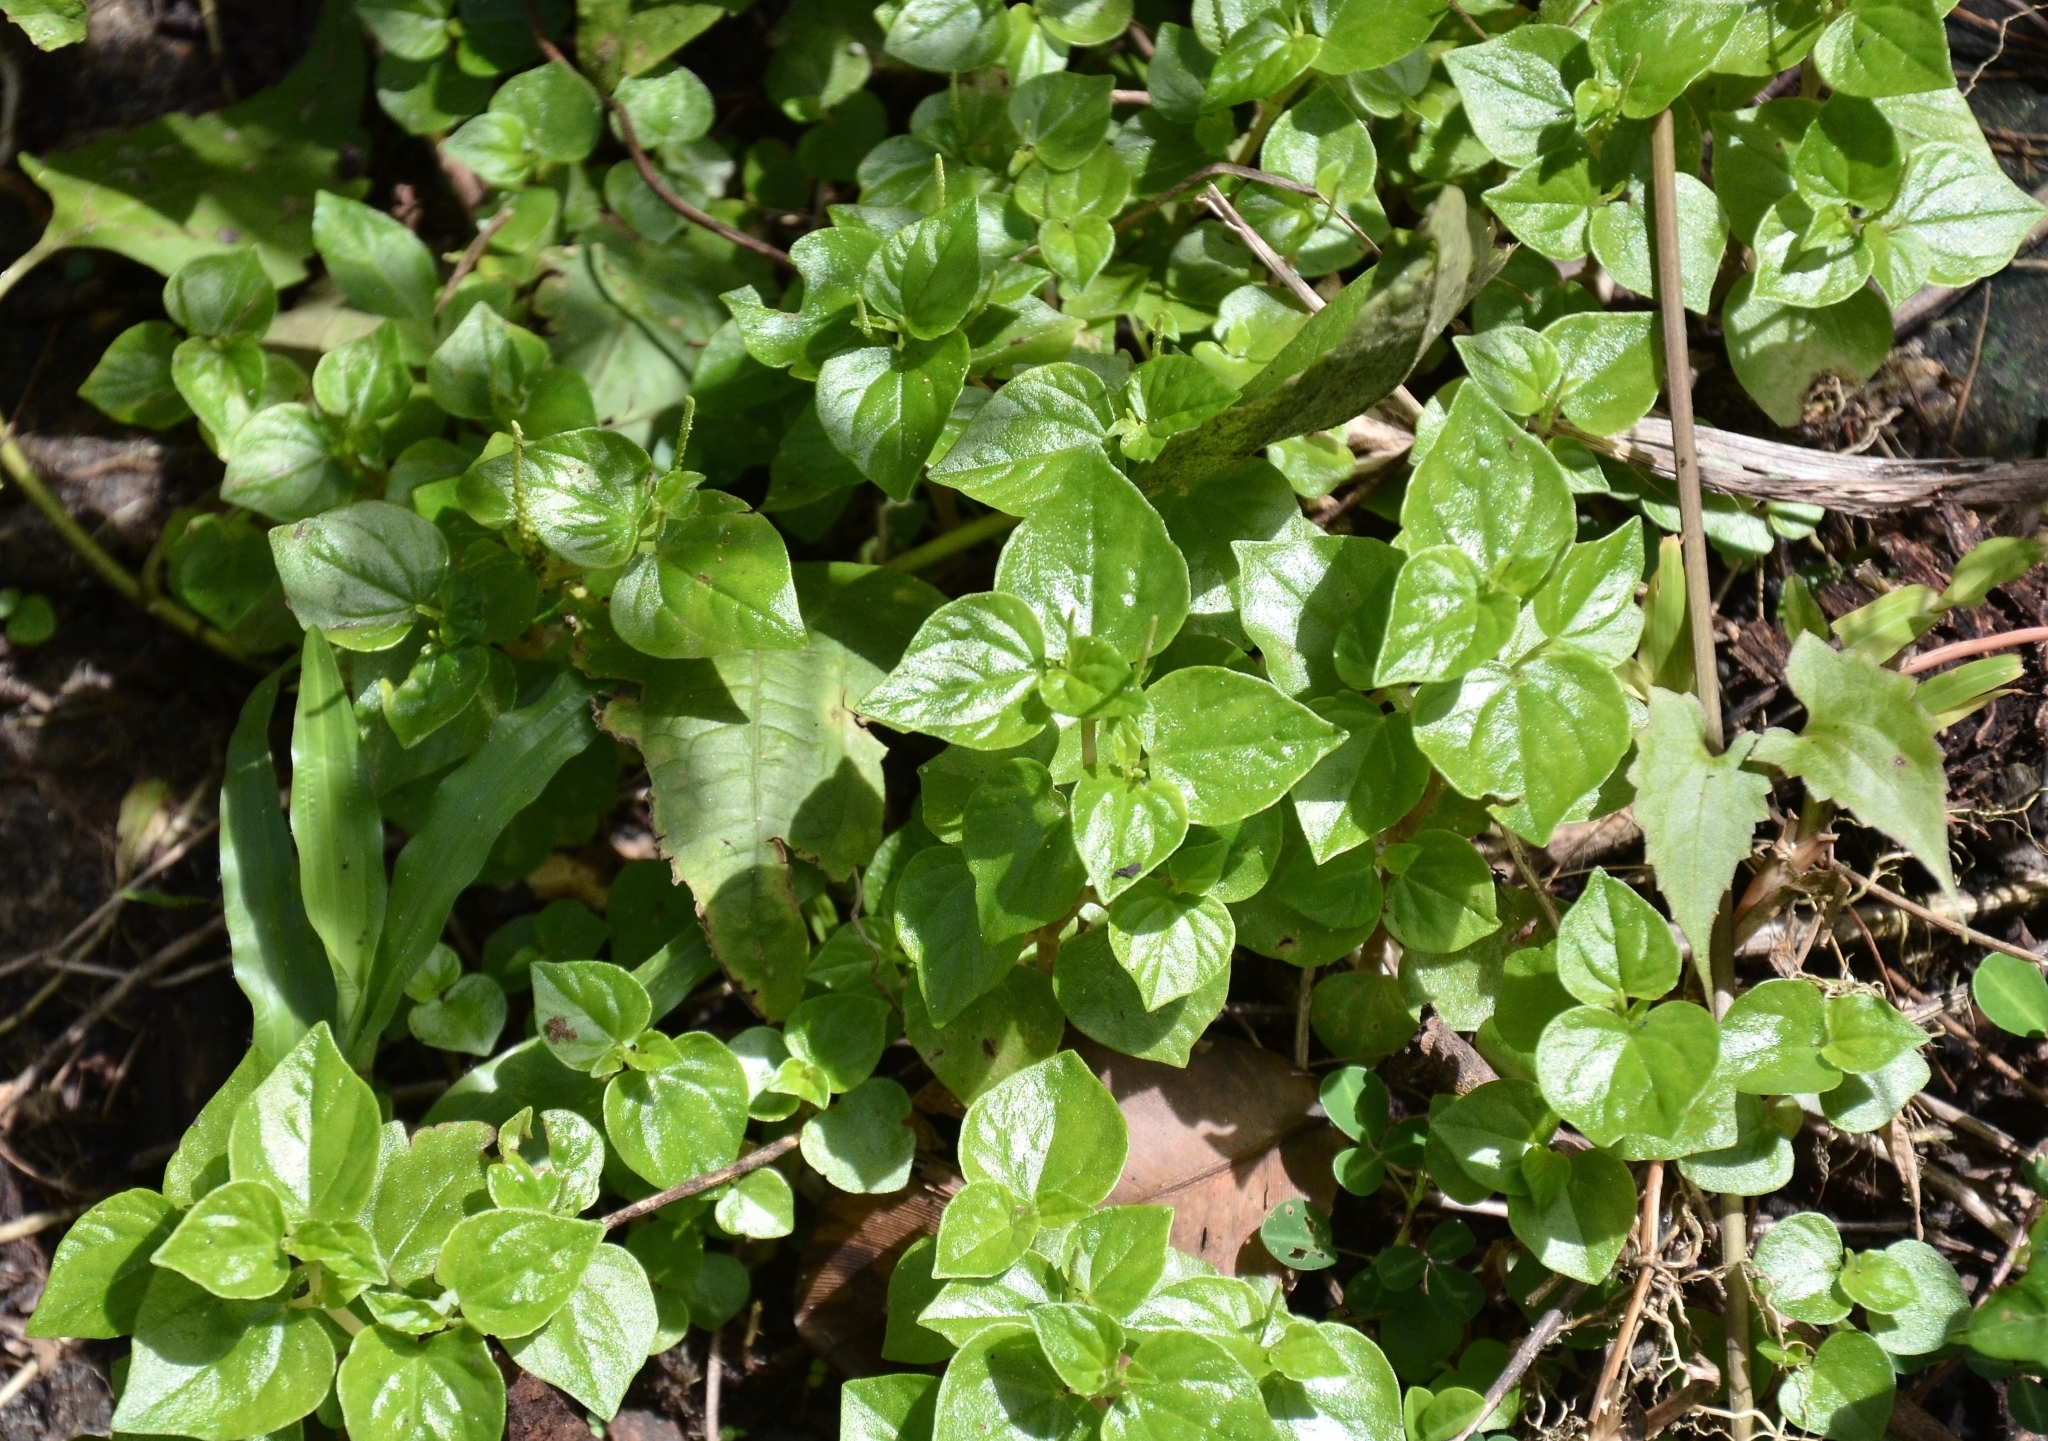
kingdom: Plantae
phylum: Tracheophyta
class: Magnoliopsida
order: Piperales
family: Piperaceae
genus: Peperomia
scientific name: Peperomia pellucida
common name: Man to man
